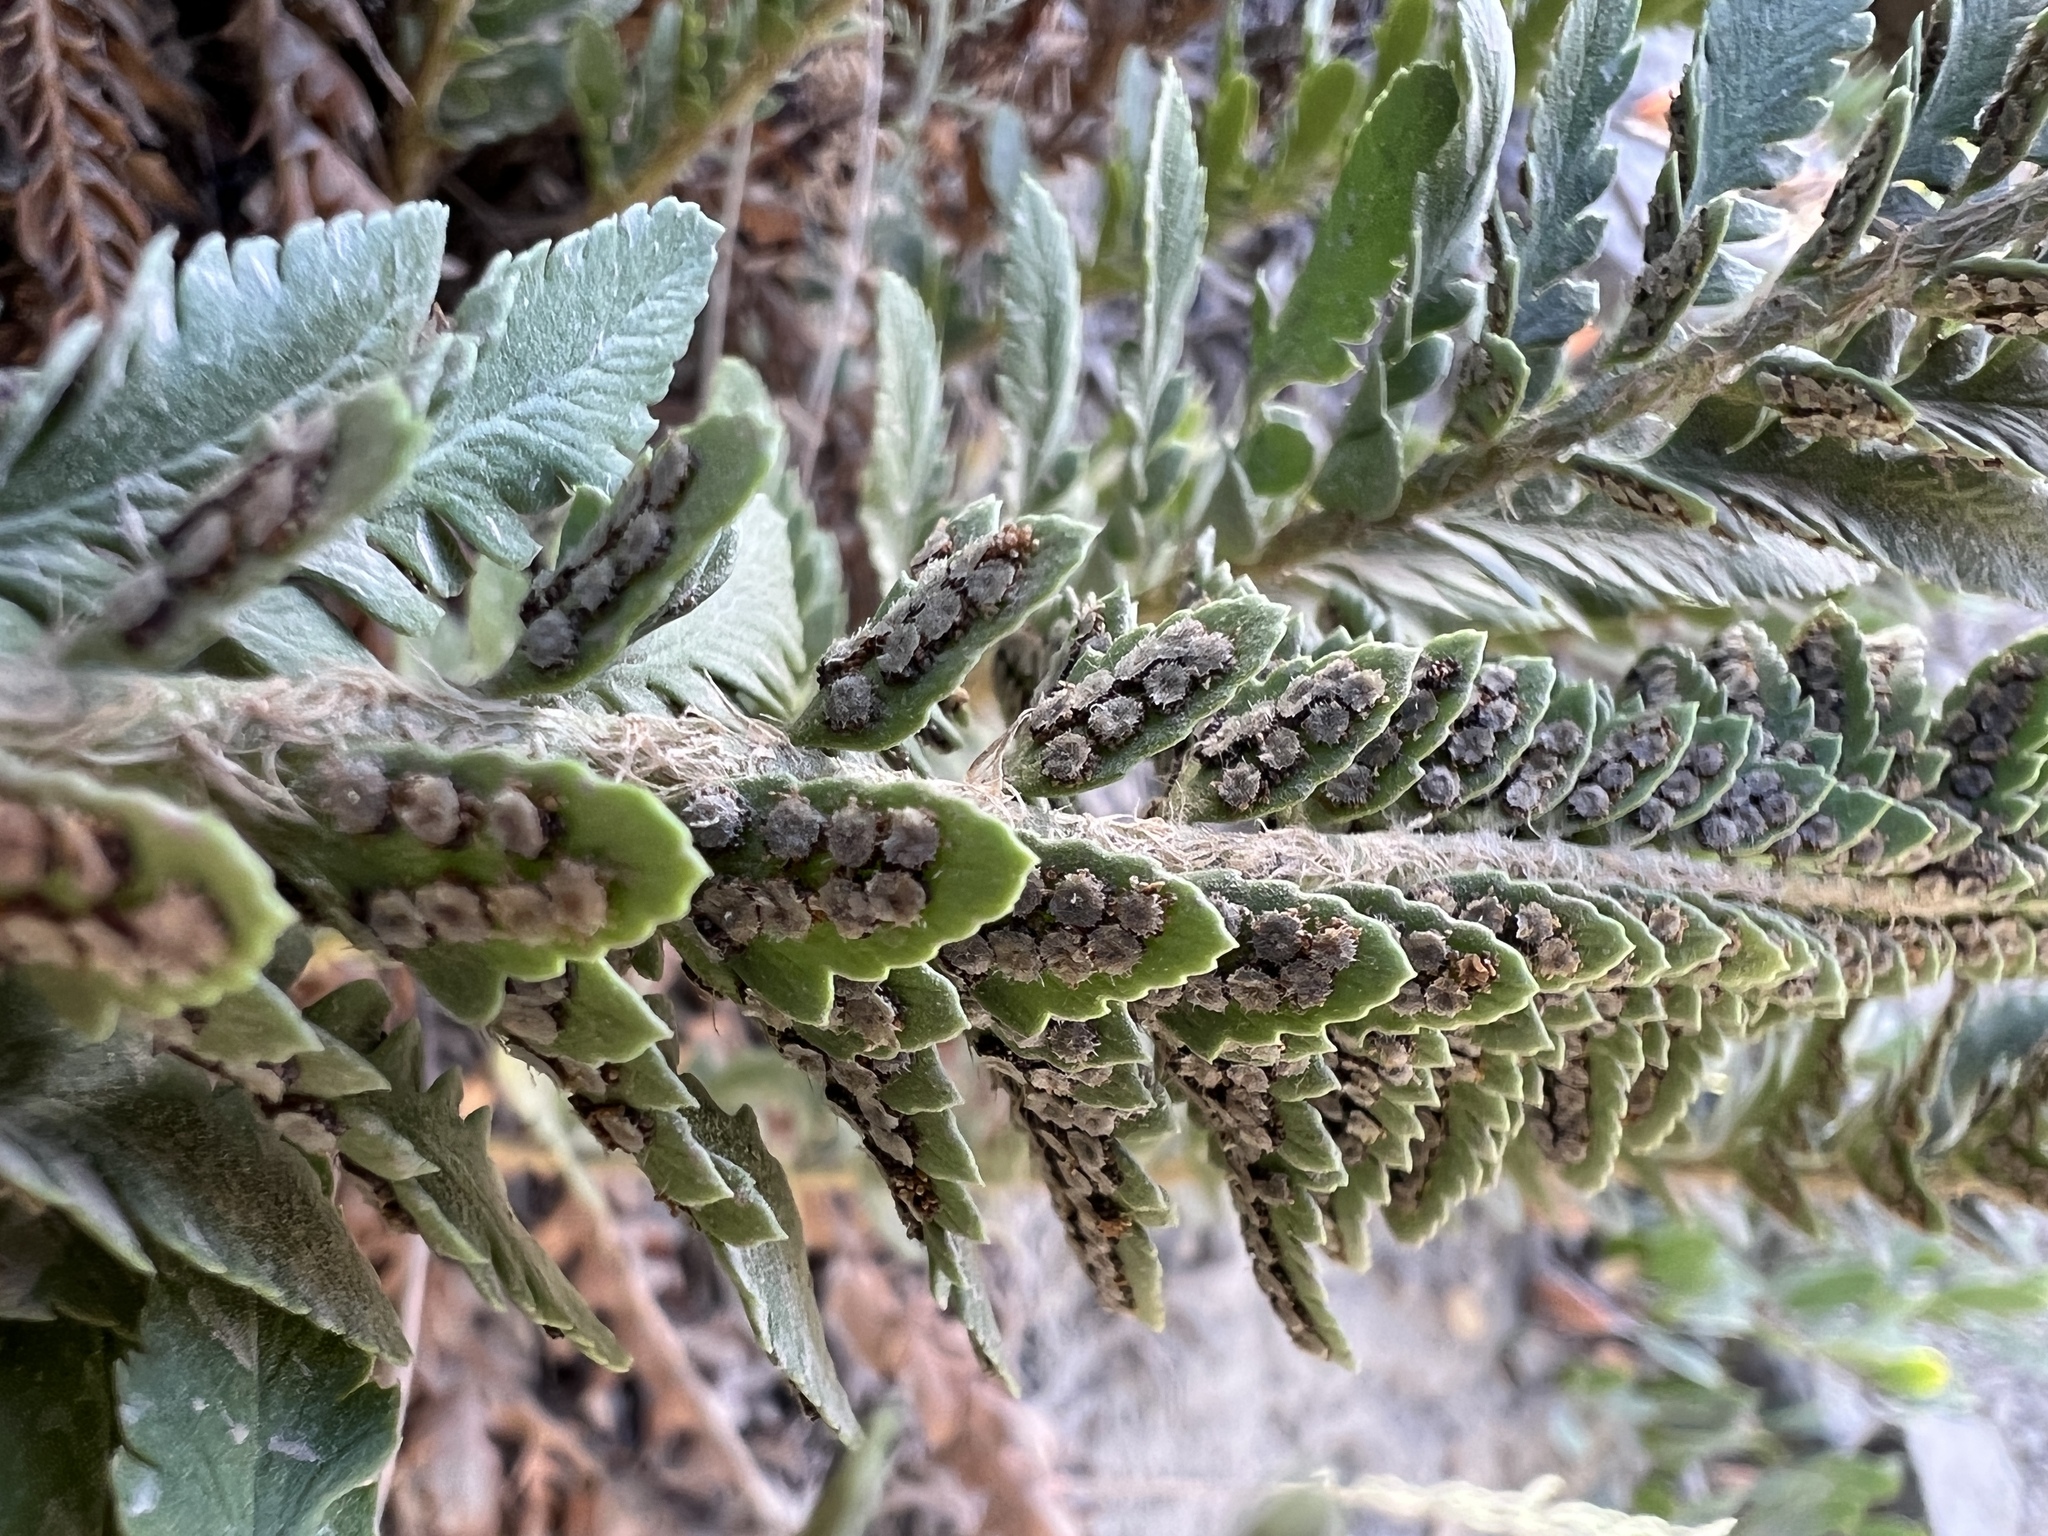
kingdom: Plantae
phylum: Tracheophyta
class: Polypodiopsida
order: Polypodiales
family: Dryopteridaceae
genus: Polystichum
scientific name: Polystichum scopulinum
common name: Eaton's shield fern
